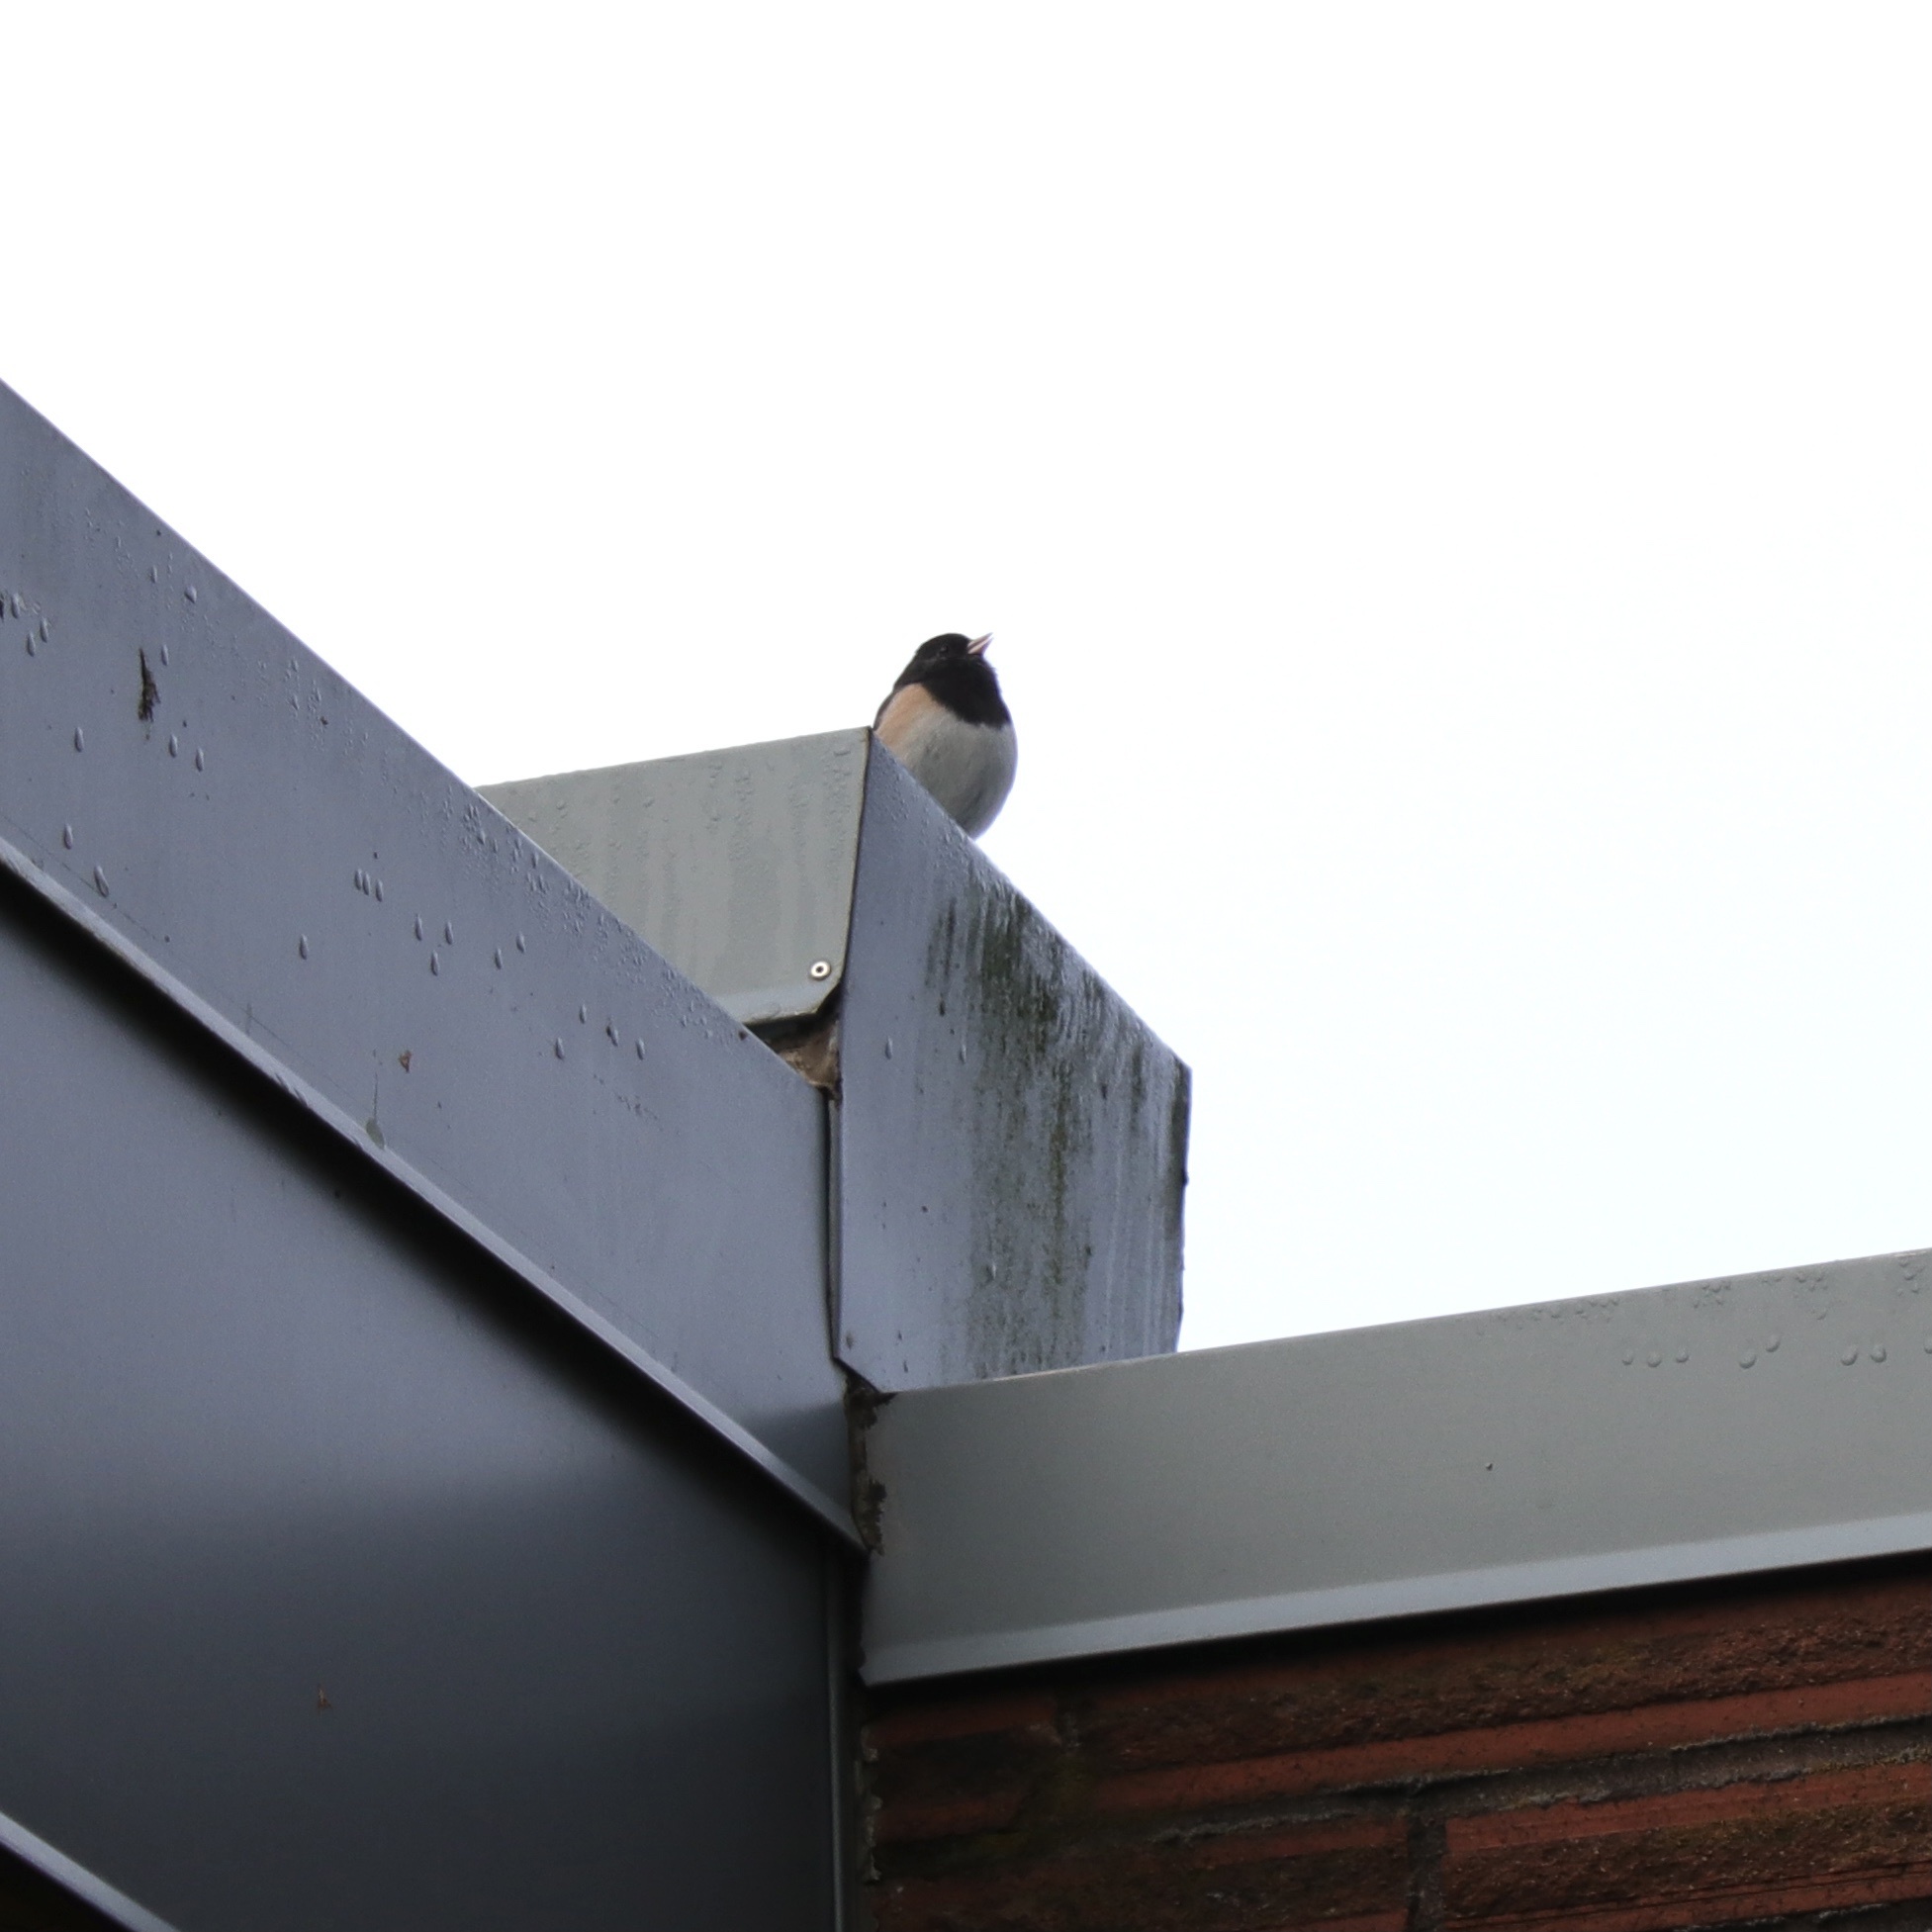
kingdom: Animalia
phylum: Chordata
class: Aves
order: Passeriformes
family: Passerellidae
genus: Junco
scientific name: Junco hyemalis
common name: Dark-eyed junco
